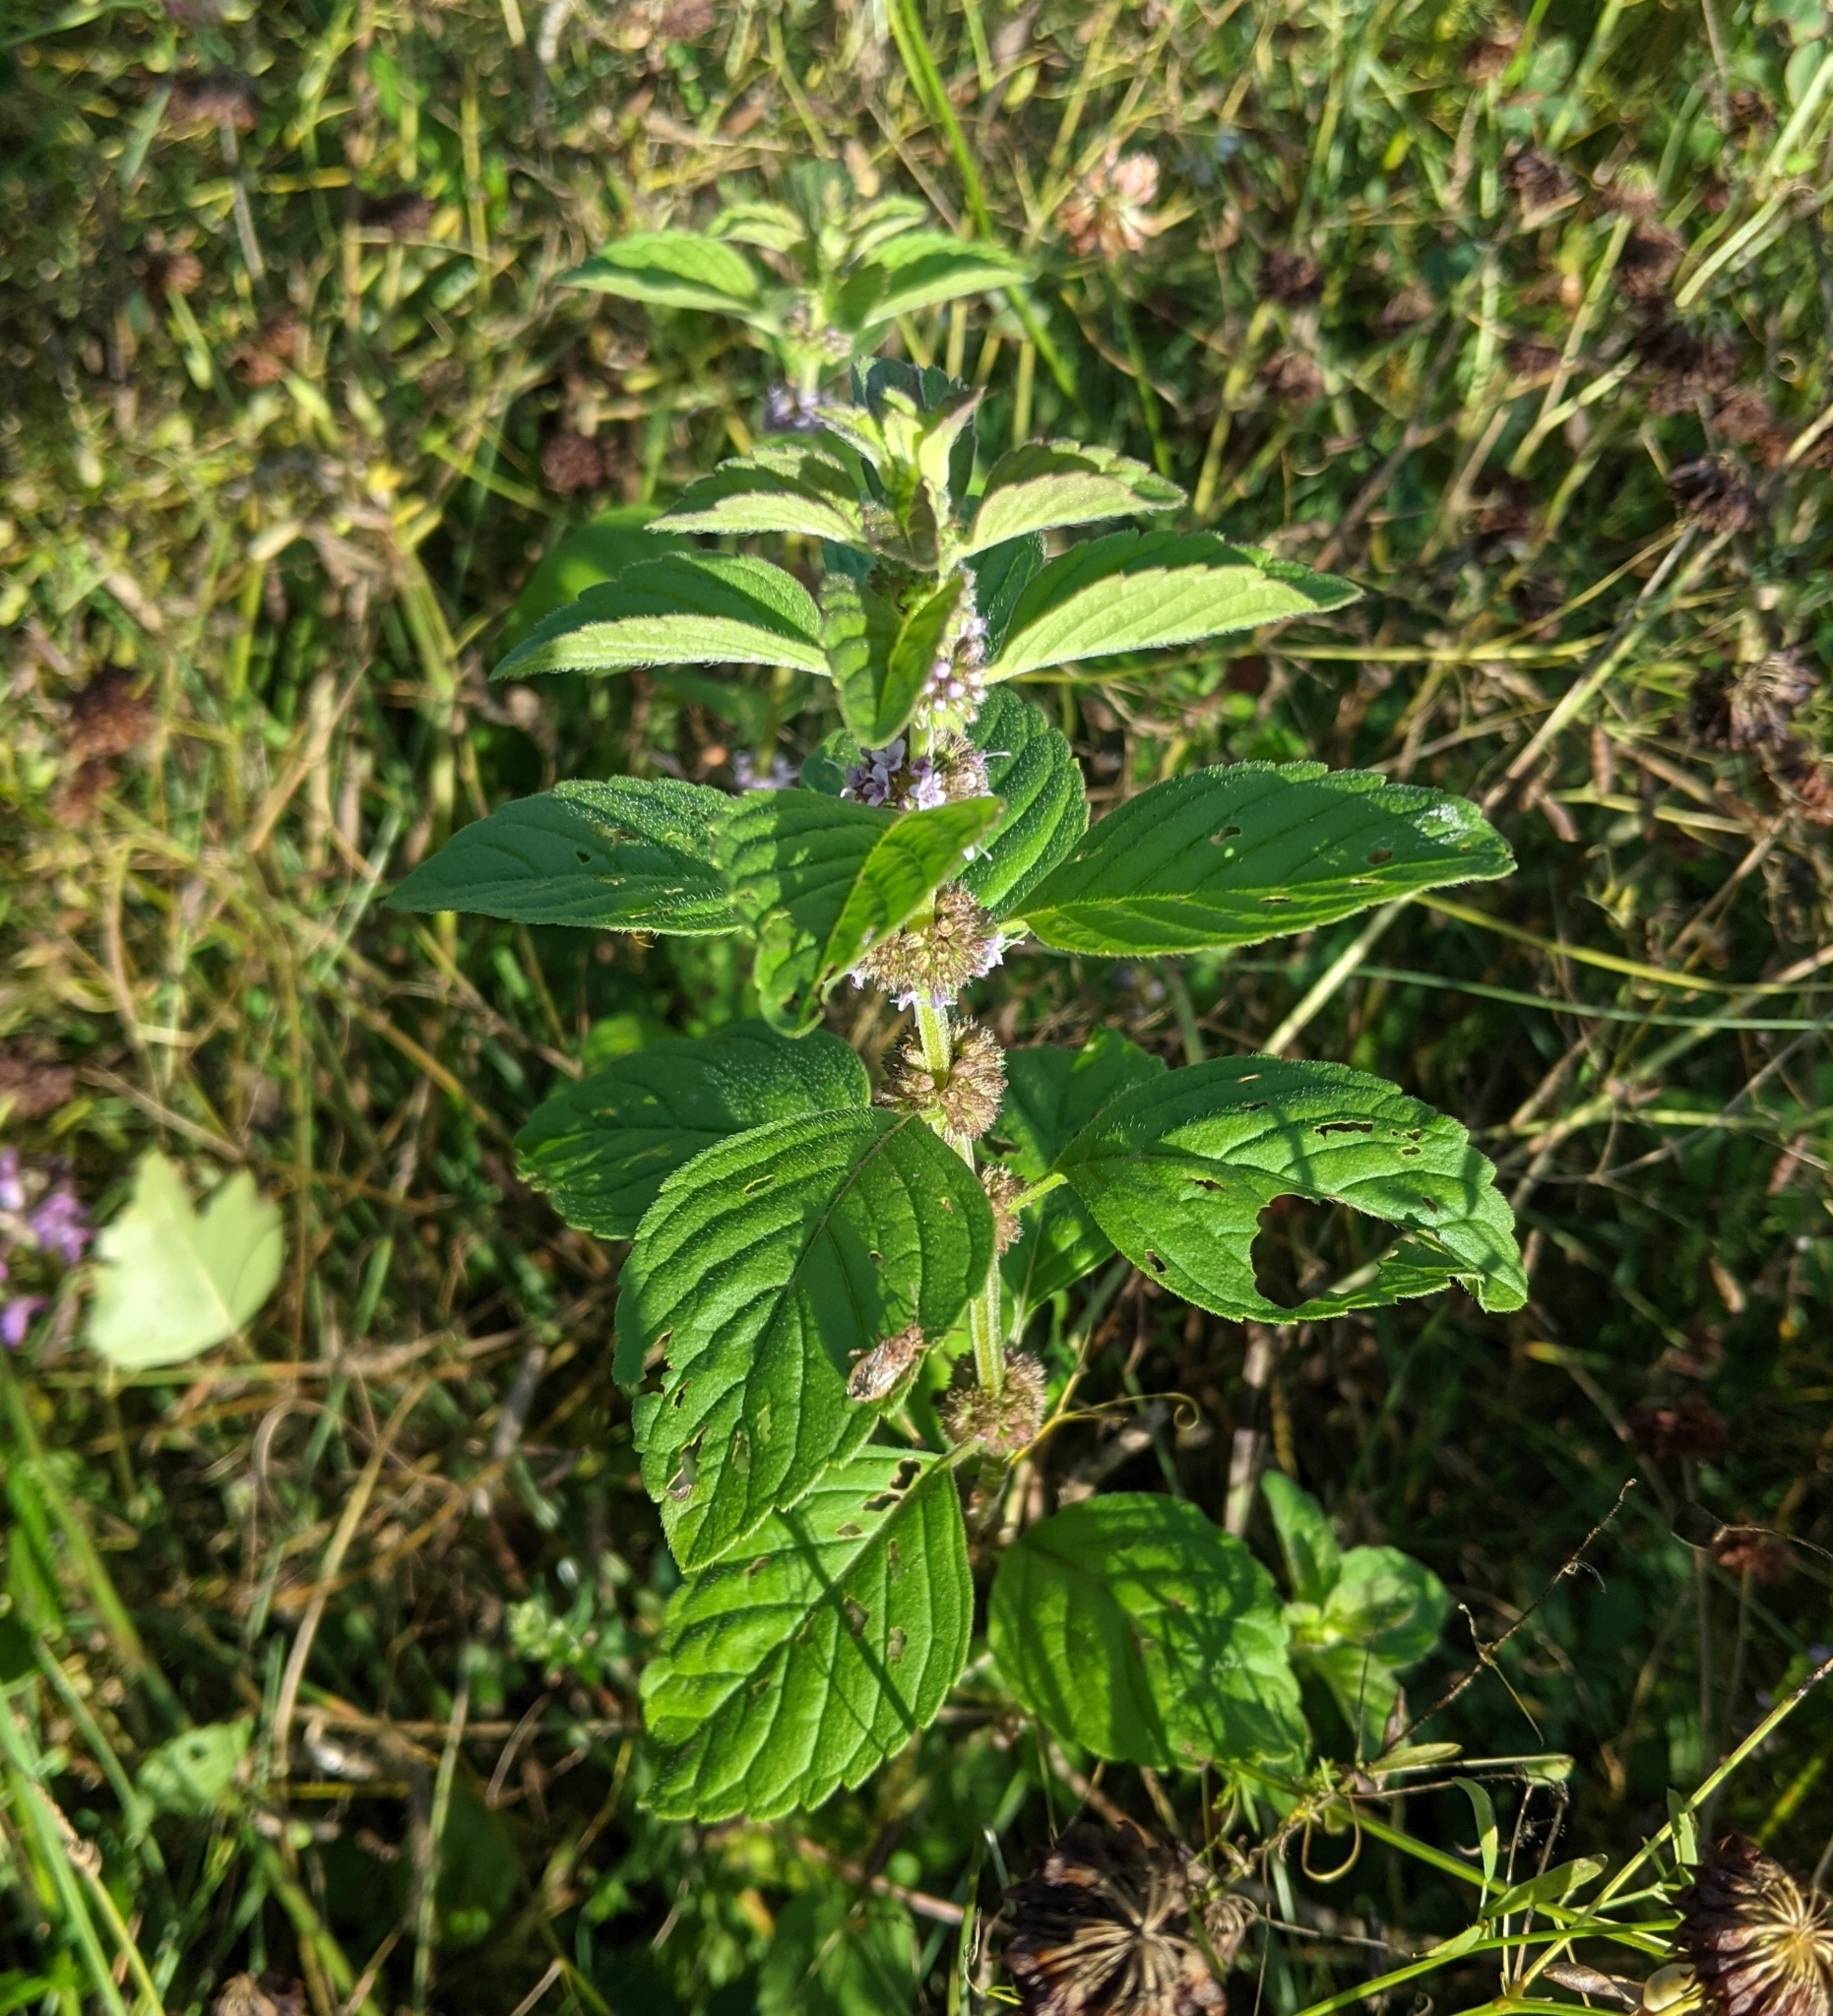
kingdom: Plantae
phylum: Tracheophyta
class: Magnoliopsida
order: Lamiales
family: Lamiaceae
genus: Mentha
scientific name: Mentha arvensis
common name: Corn mint
